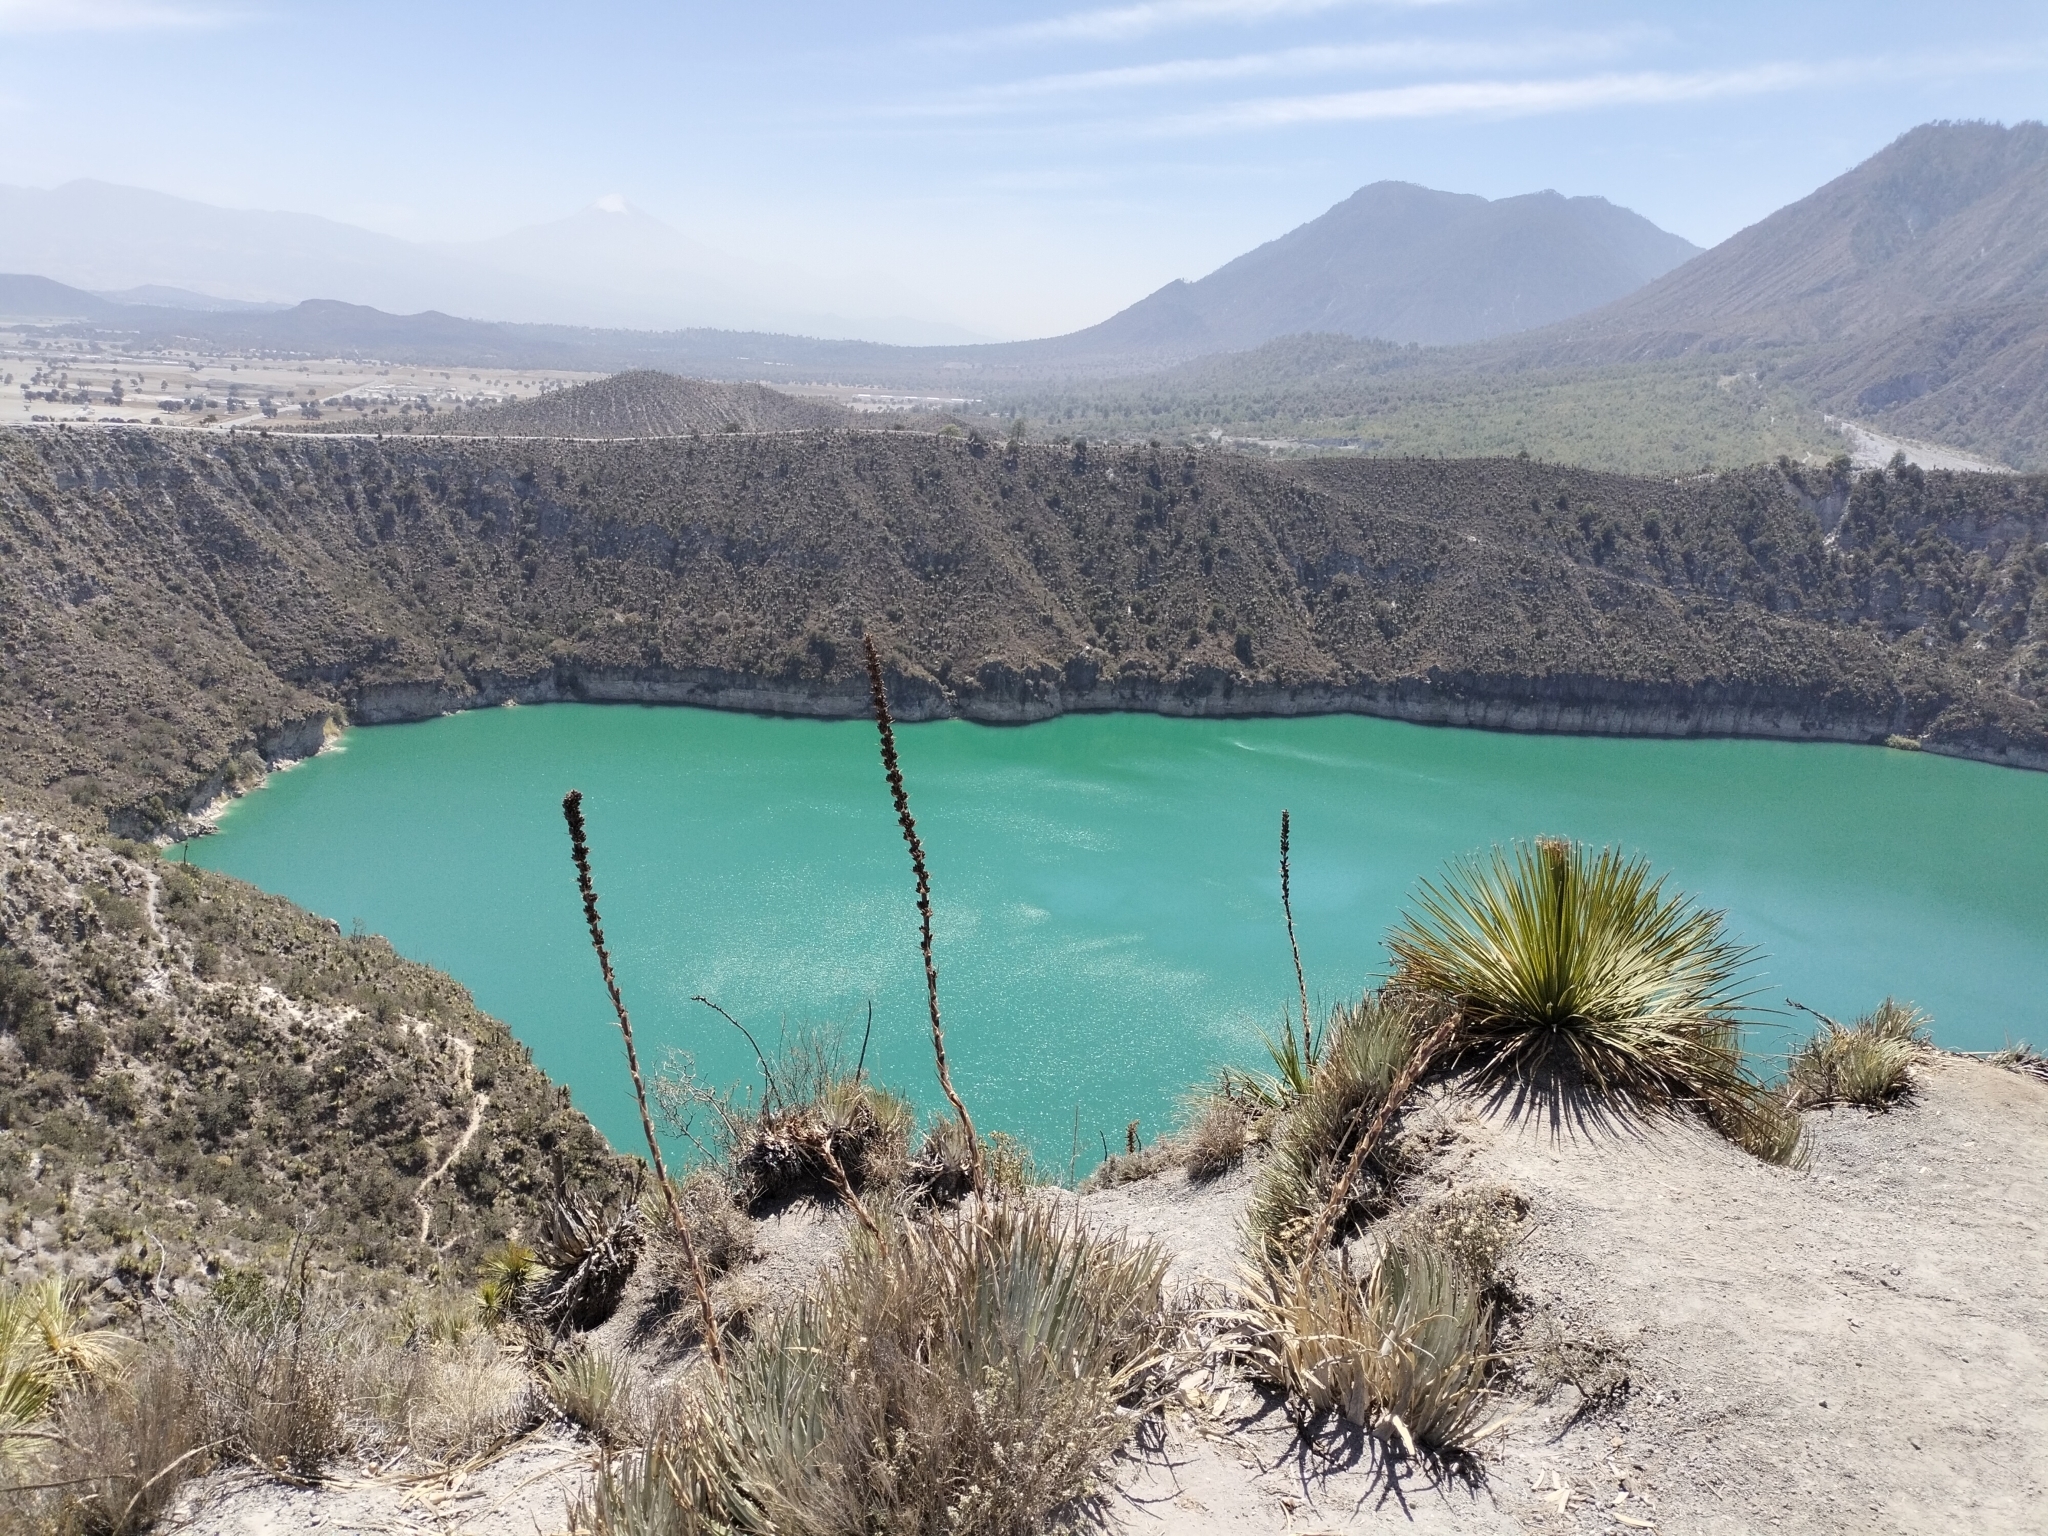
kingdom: Plantae
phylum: Tracheophyta
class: Liliopsida
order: Poales
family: Bromeliaceae
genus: Hechtia
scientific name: Hechtia perotensis
